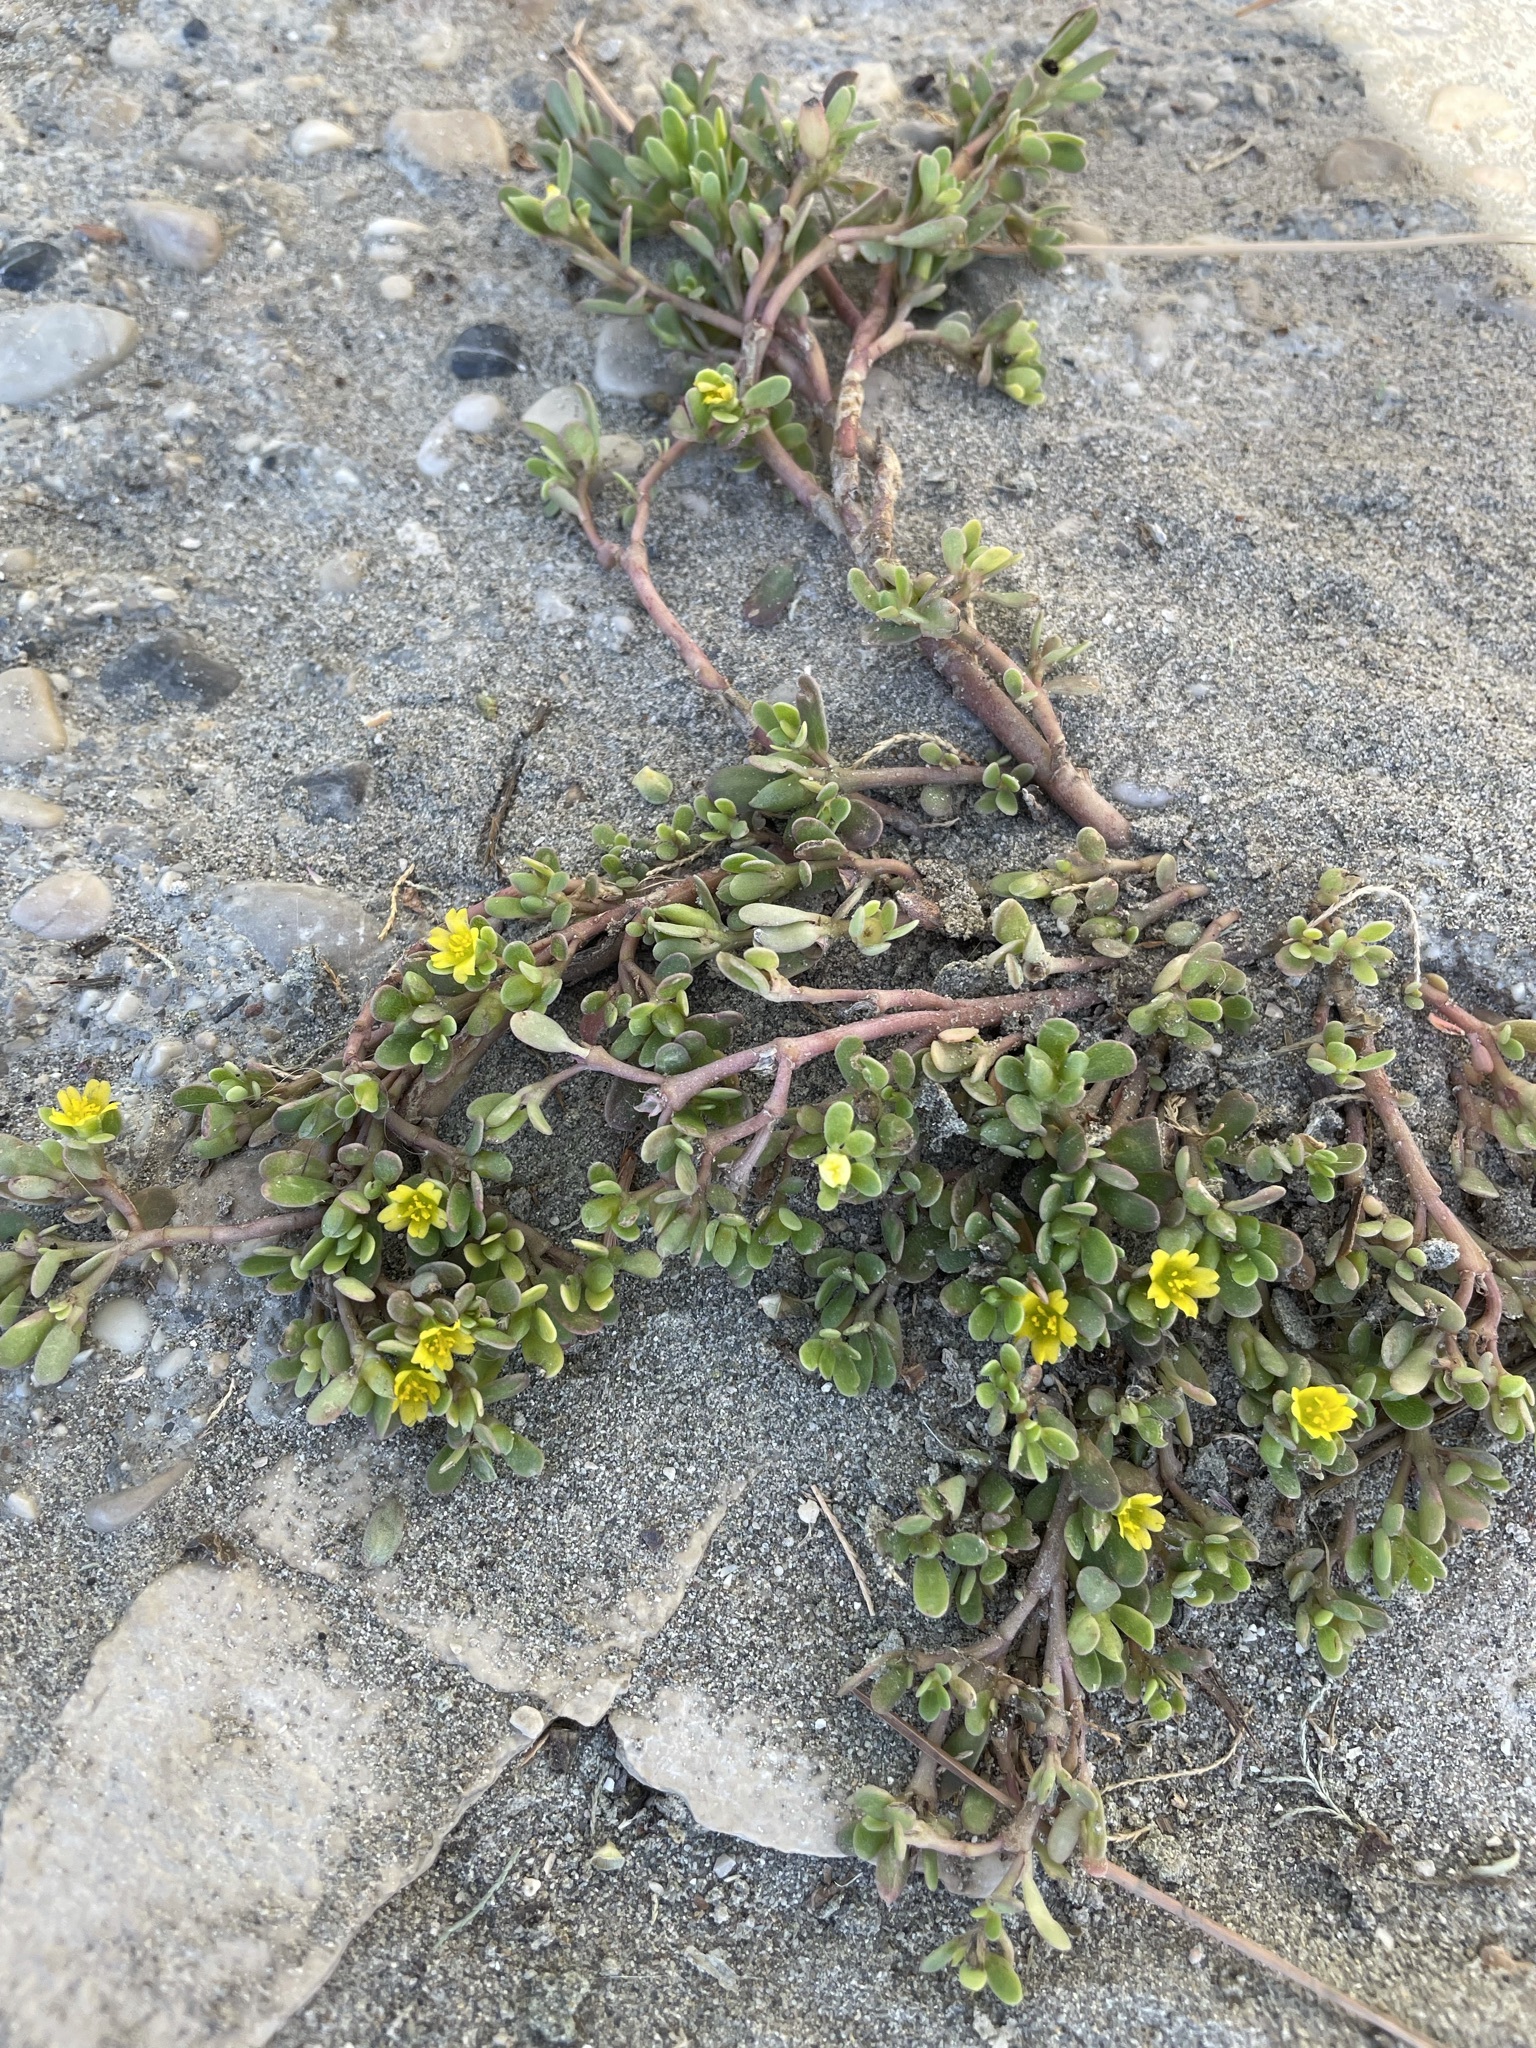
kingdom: Plantae
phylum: Tracheophyta
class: Magnoliopsida
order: Caryophyllales
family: Portulacaceae
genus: Portulaca
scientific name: Portulaca oleracea
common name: Common purslane
